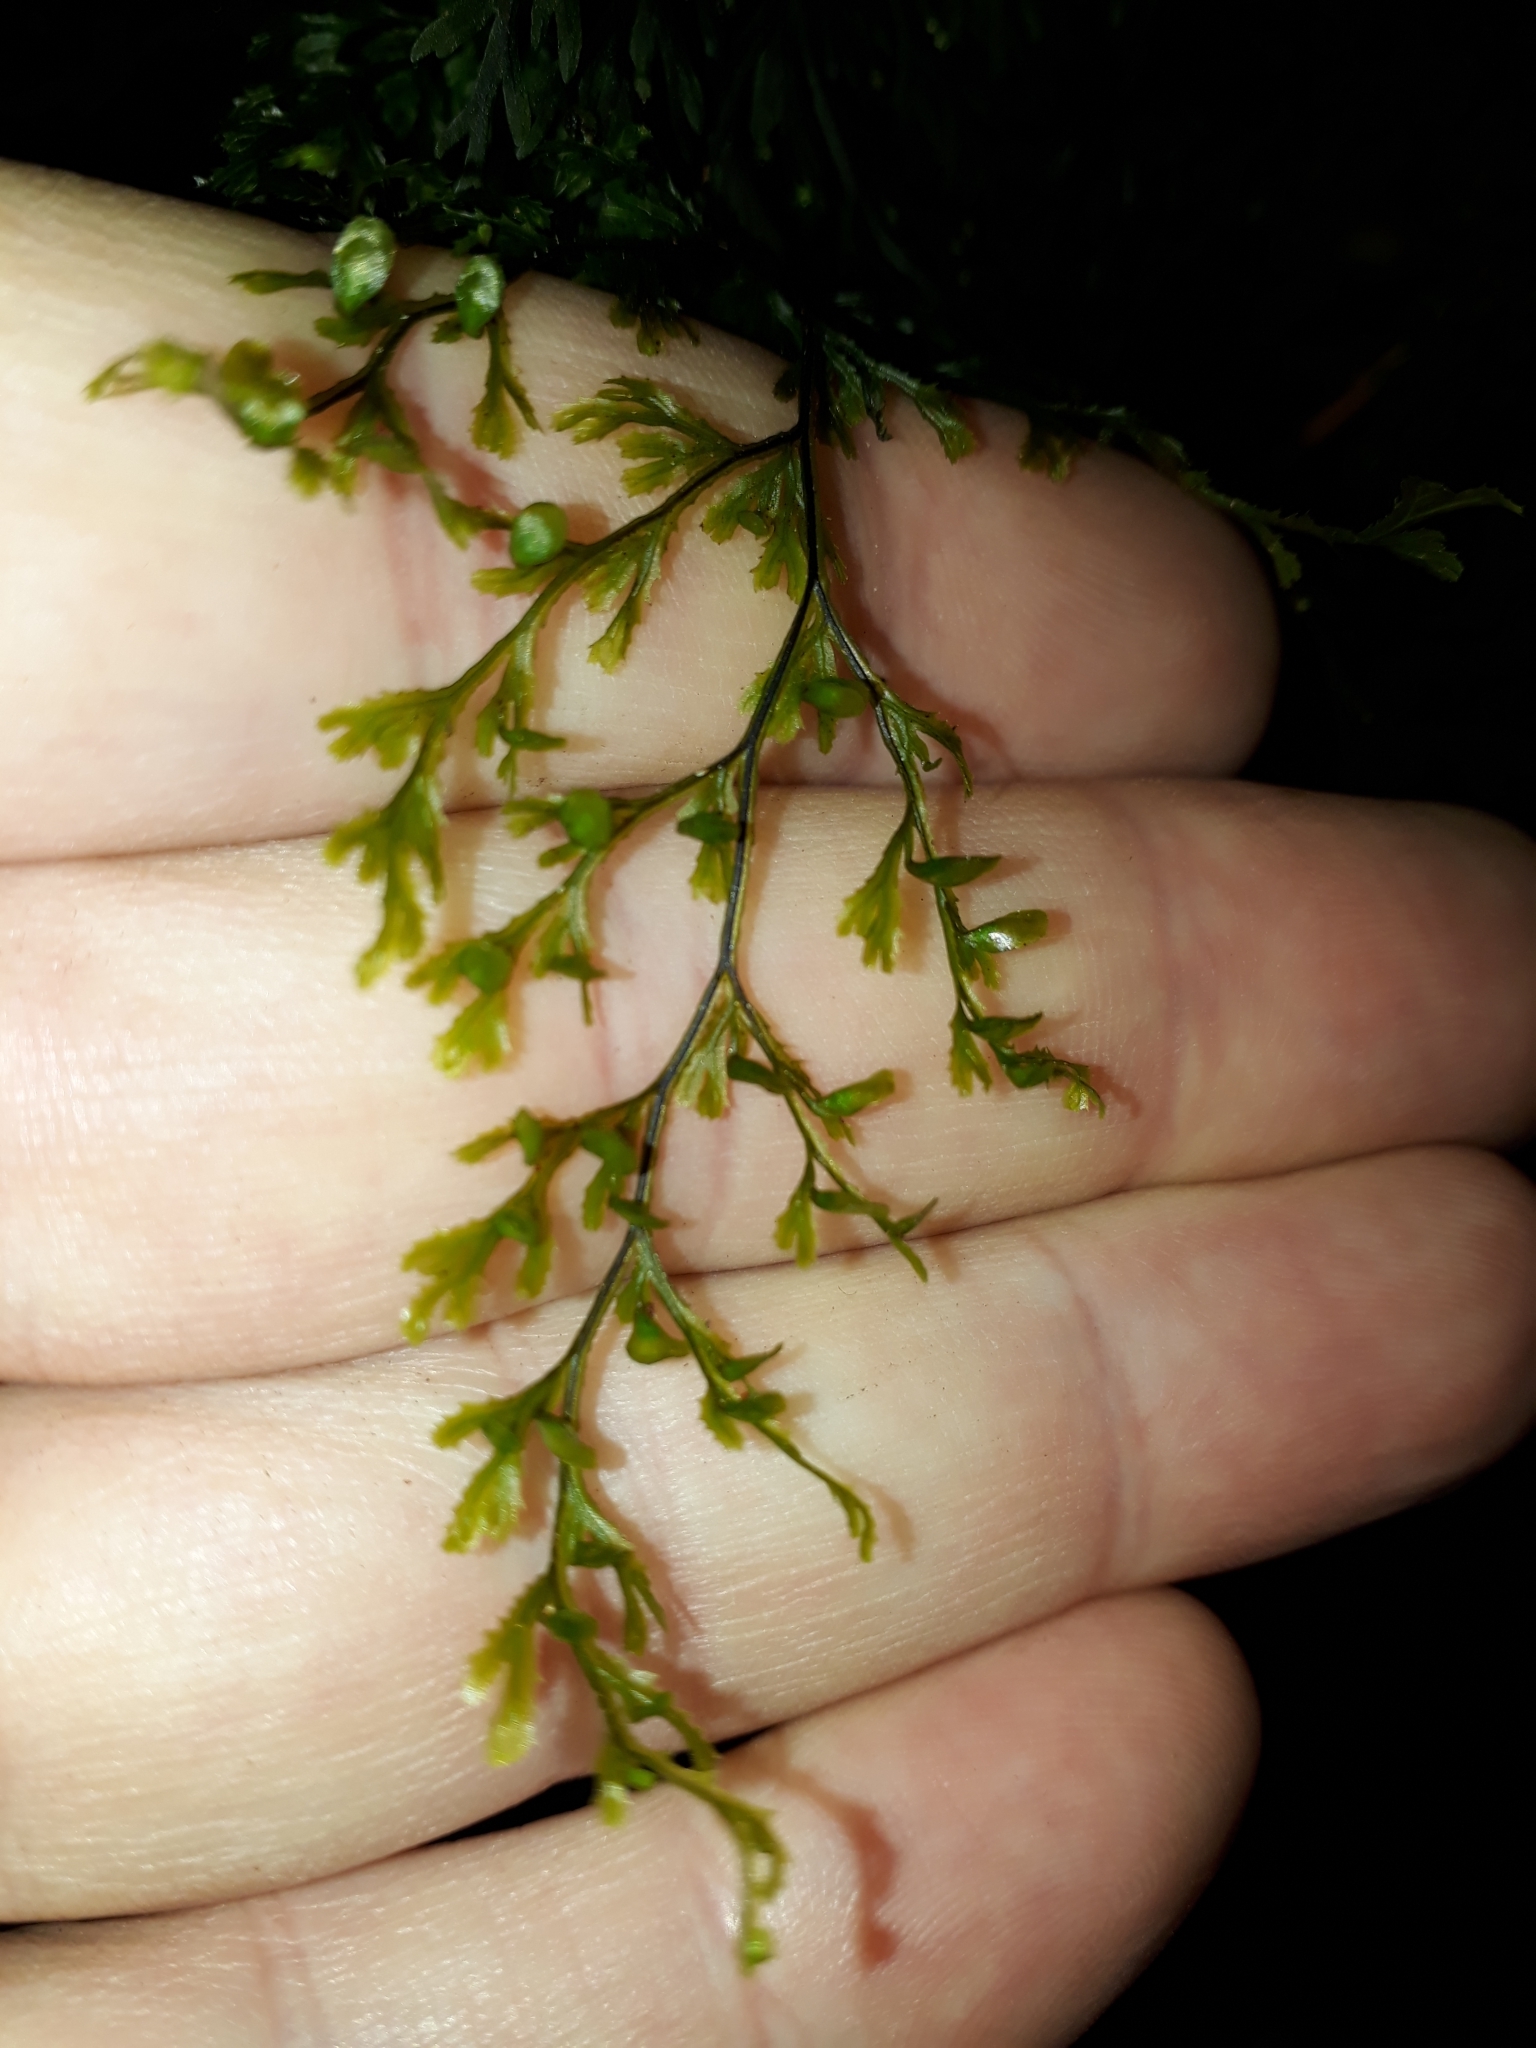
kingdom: Plantae
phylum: Tracheophyta
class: Polypodiopsida
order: Hymenophyllales
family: Hymenophyllaceae
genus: Hymenophyllum
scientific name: Hymenophyllum multifidum
